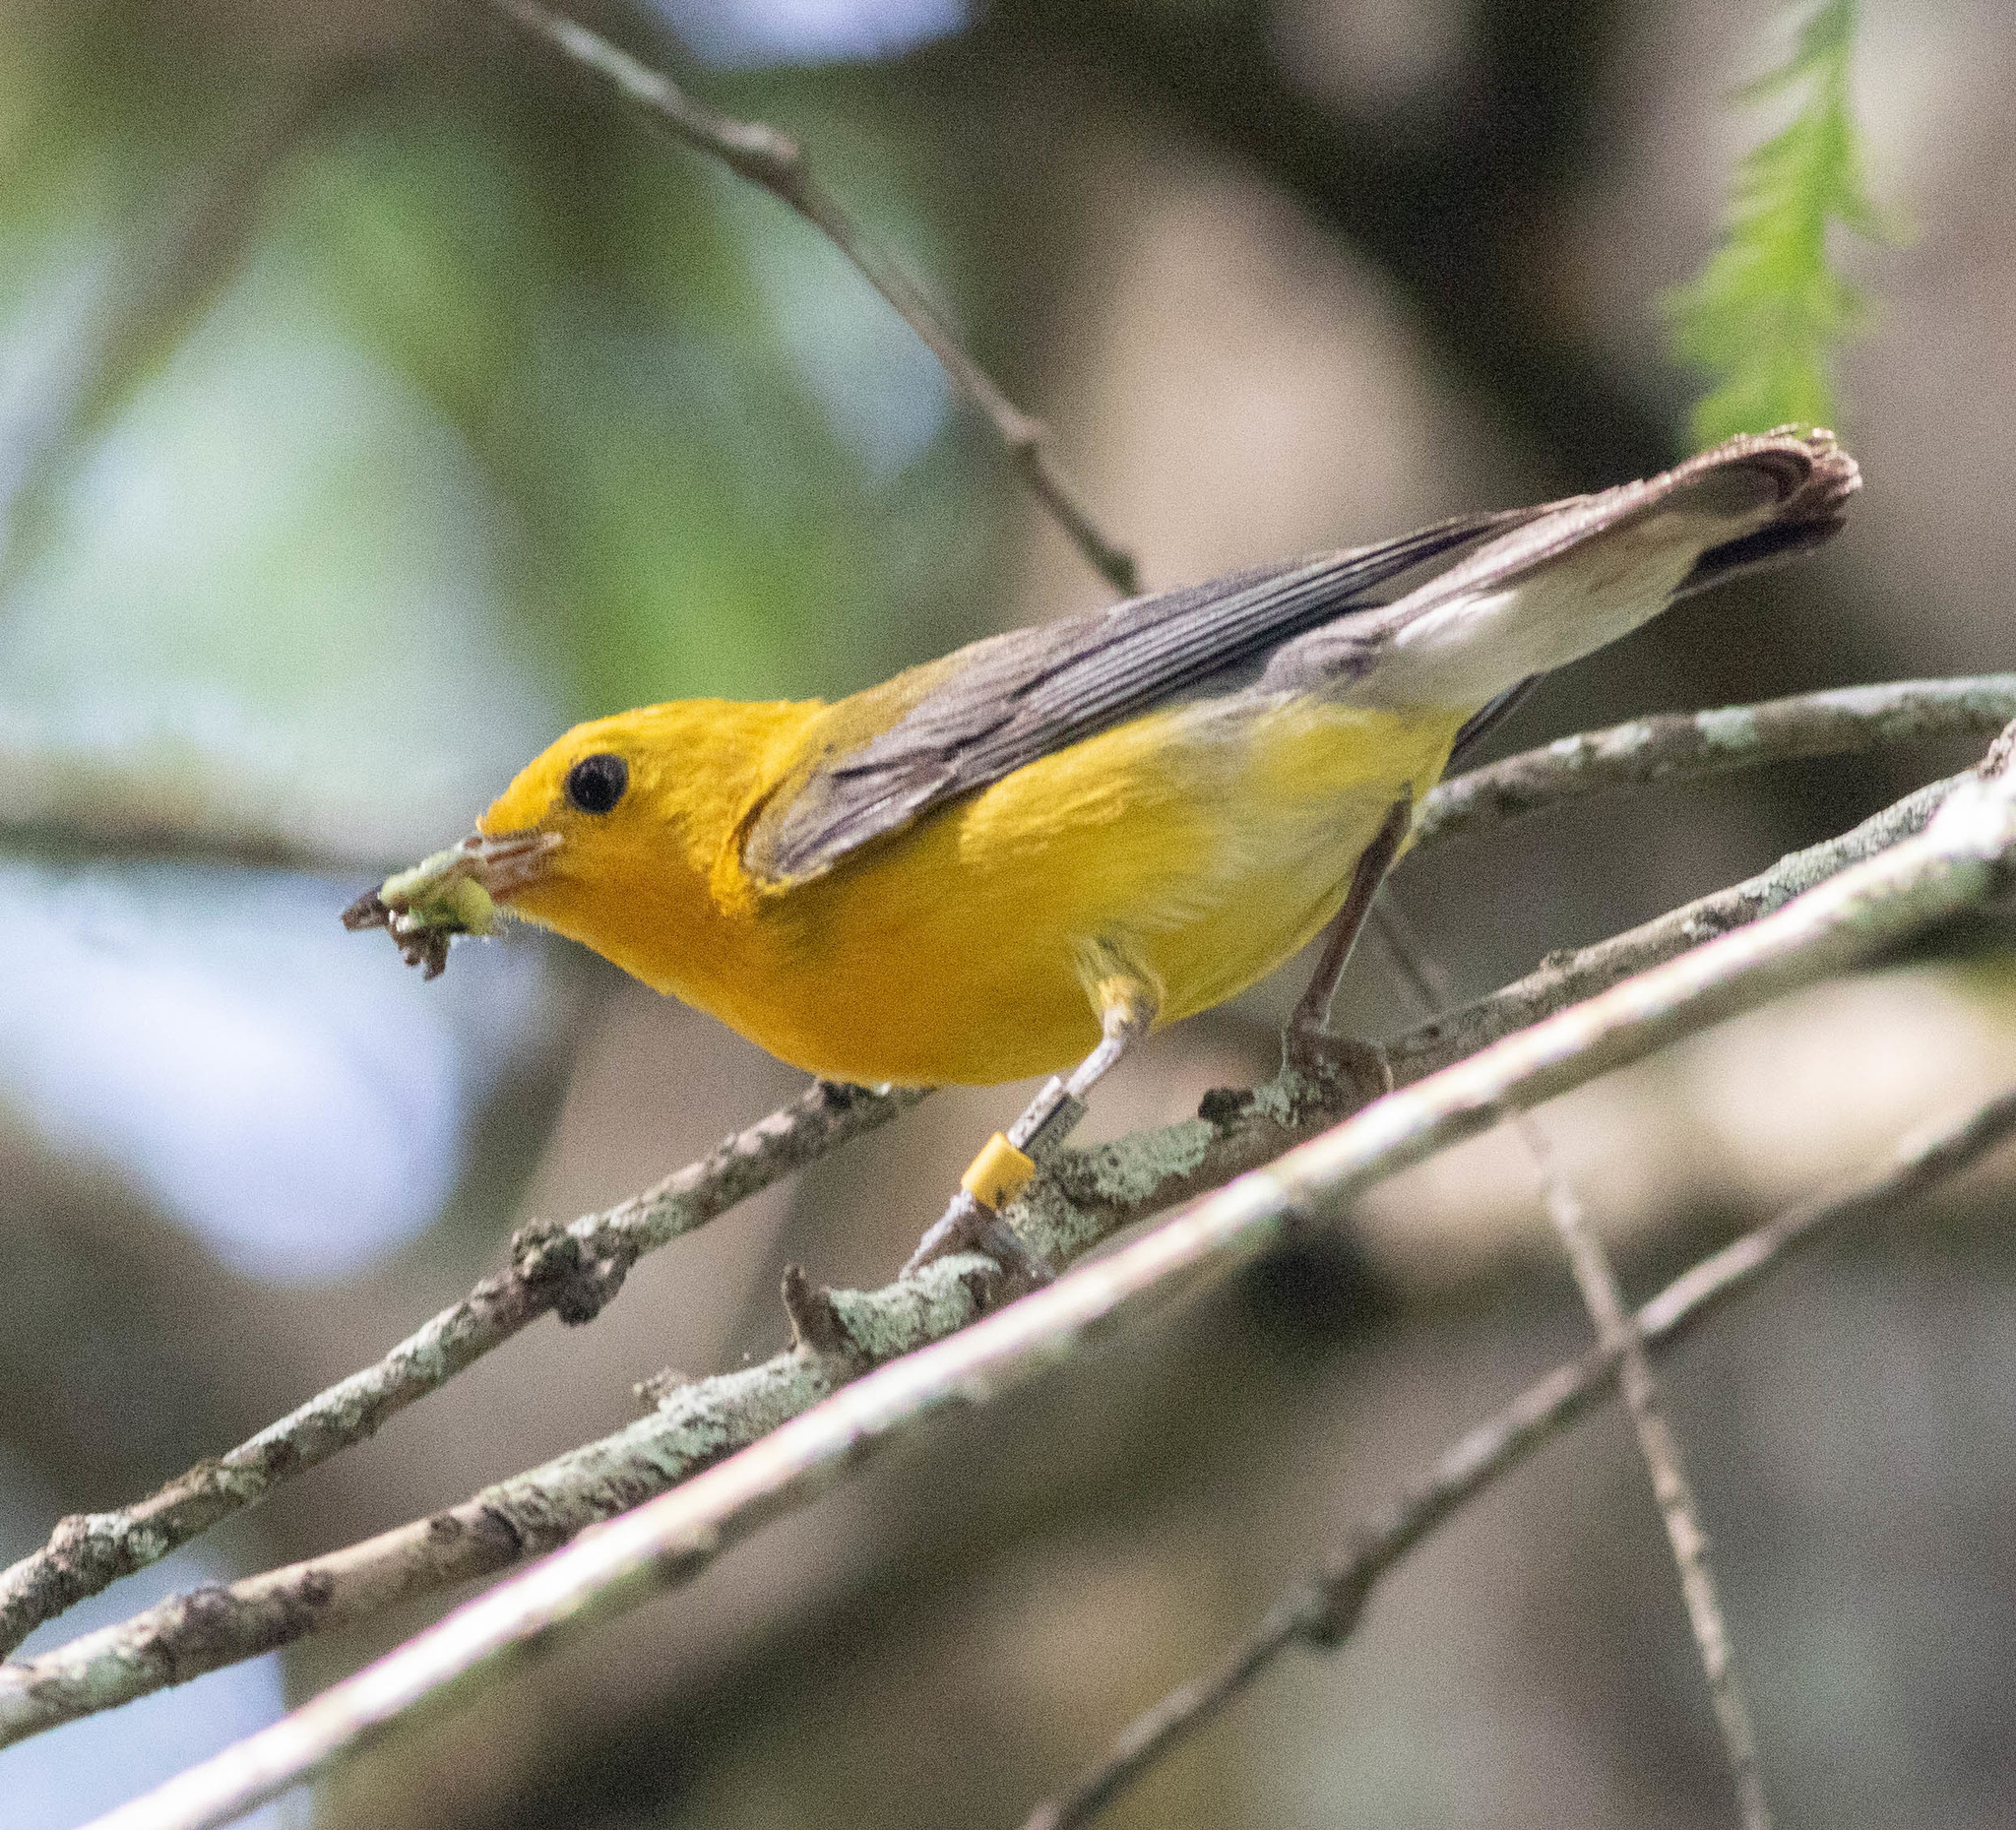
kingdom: Animalia
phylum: Chordata
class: Aves
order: Passeriformes
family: Parulidae
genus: Protonotaria
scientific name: Protonotaria citrea
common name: Prothonotary warbler
